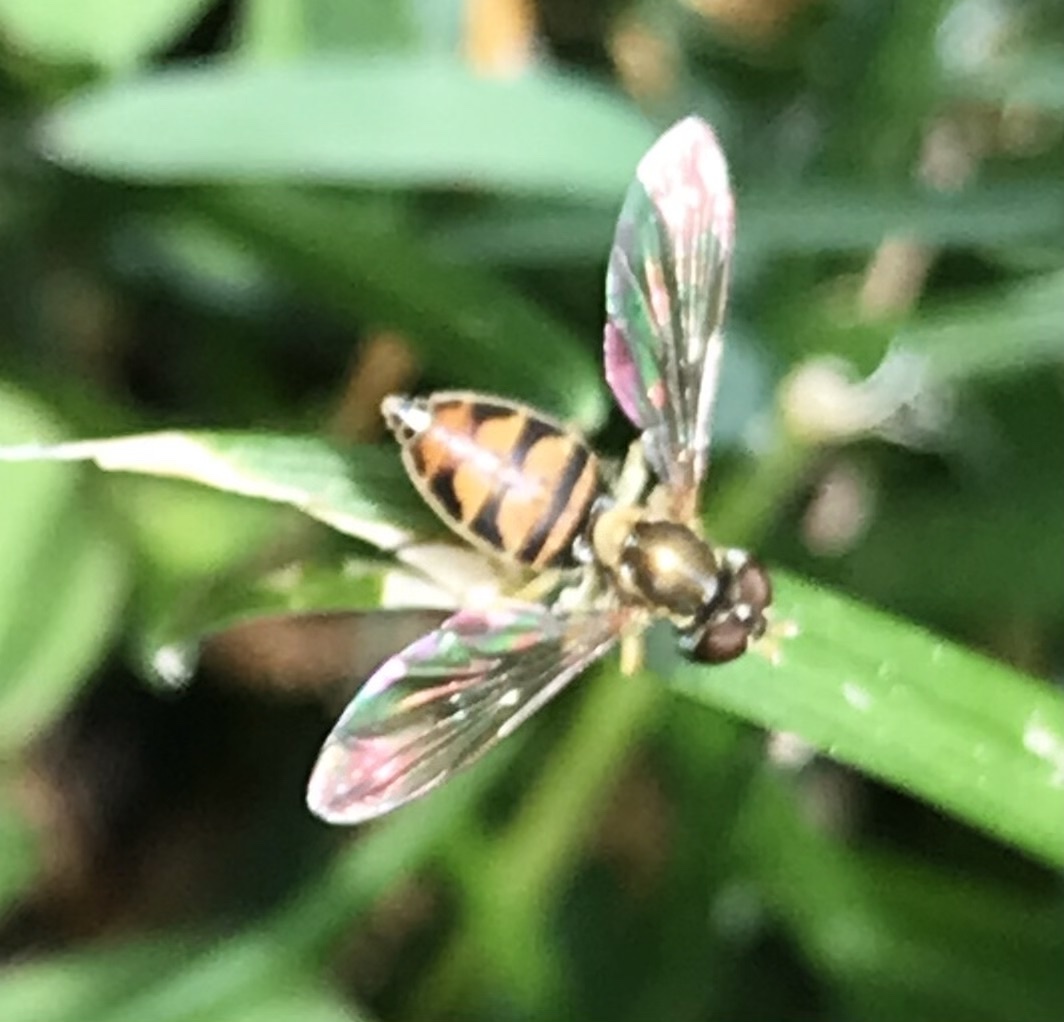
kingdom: Animalia
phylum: Arthropoda
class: Insecta
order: Diptera
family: Syrphidae
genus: Toxomerus
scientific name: Toxomerus marginatus
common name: Syrphid fly
